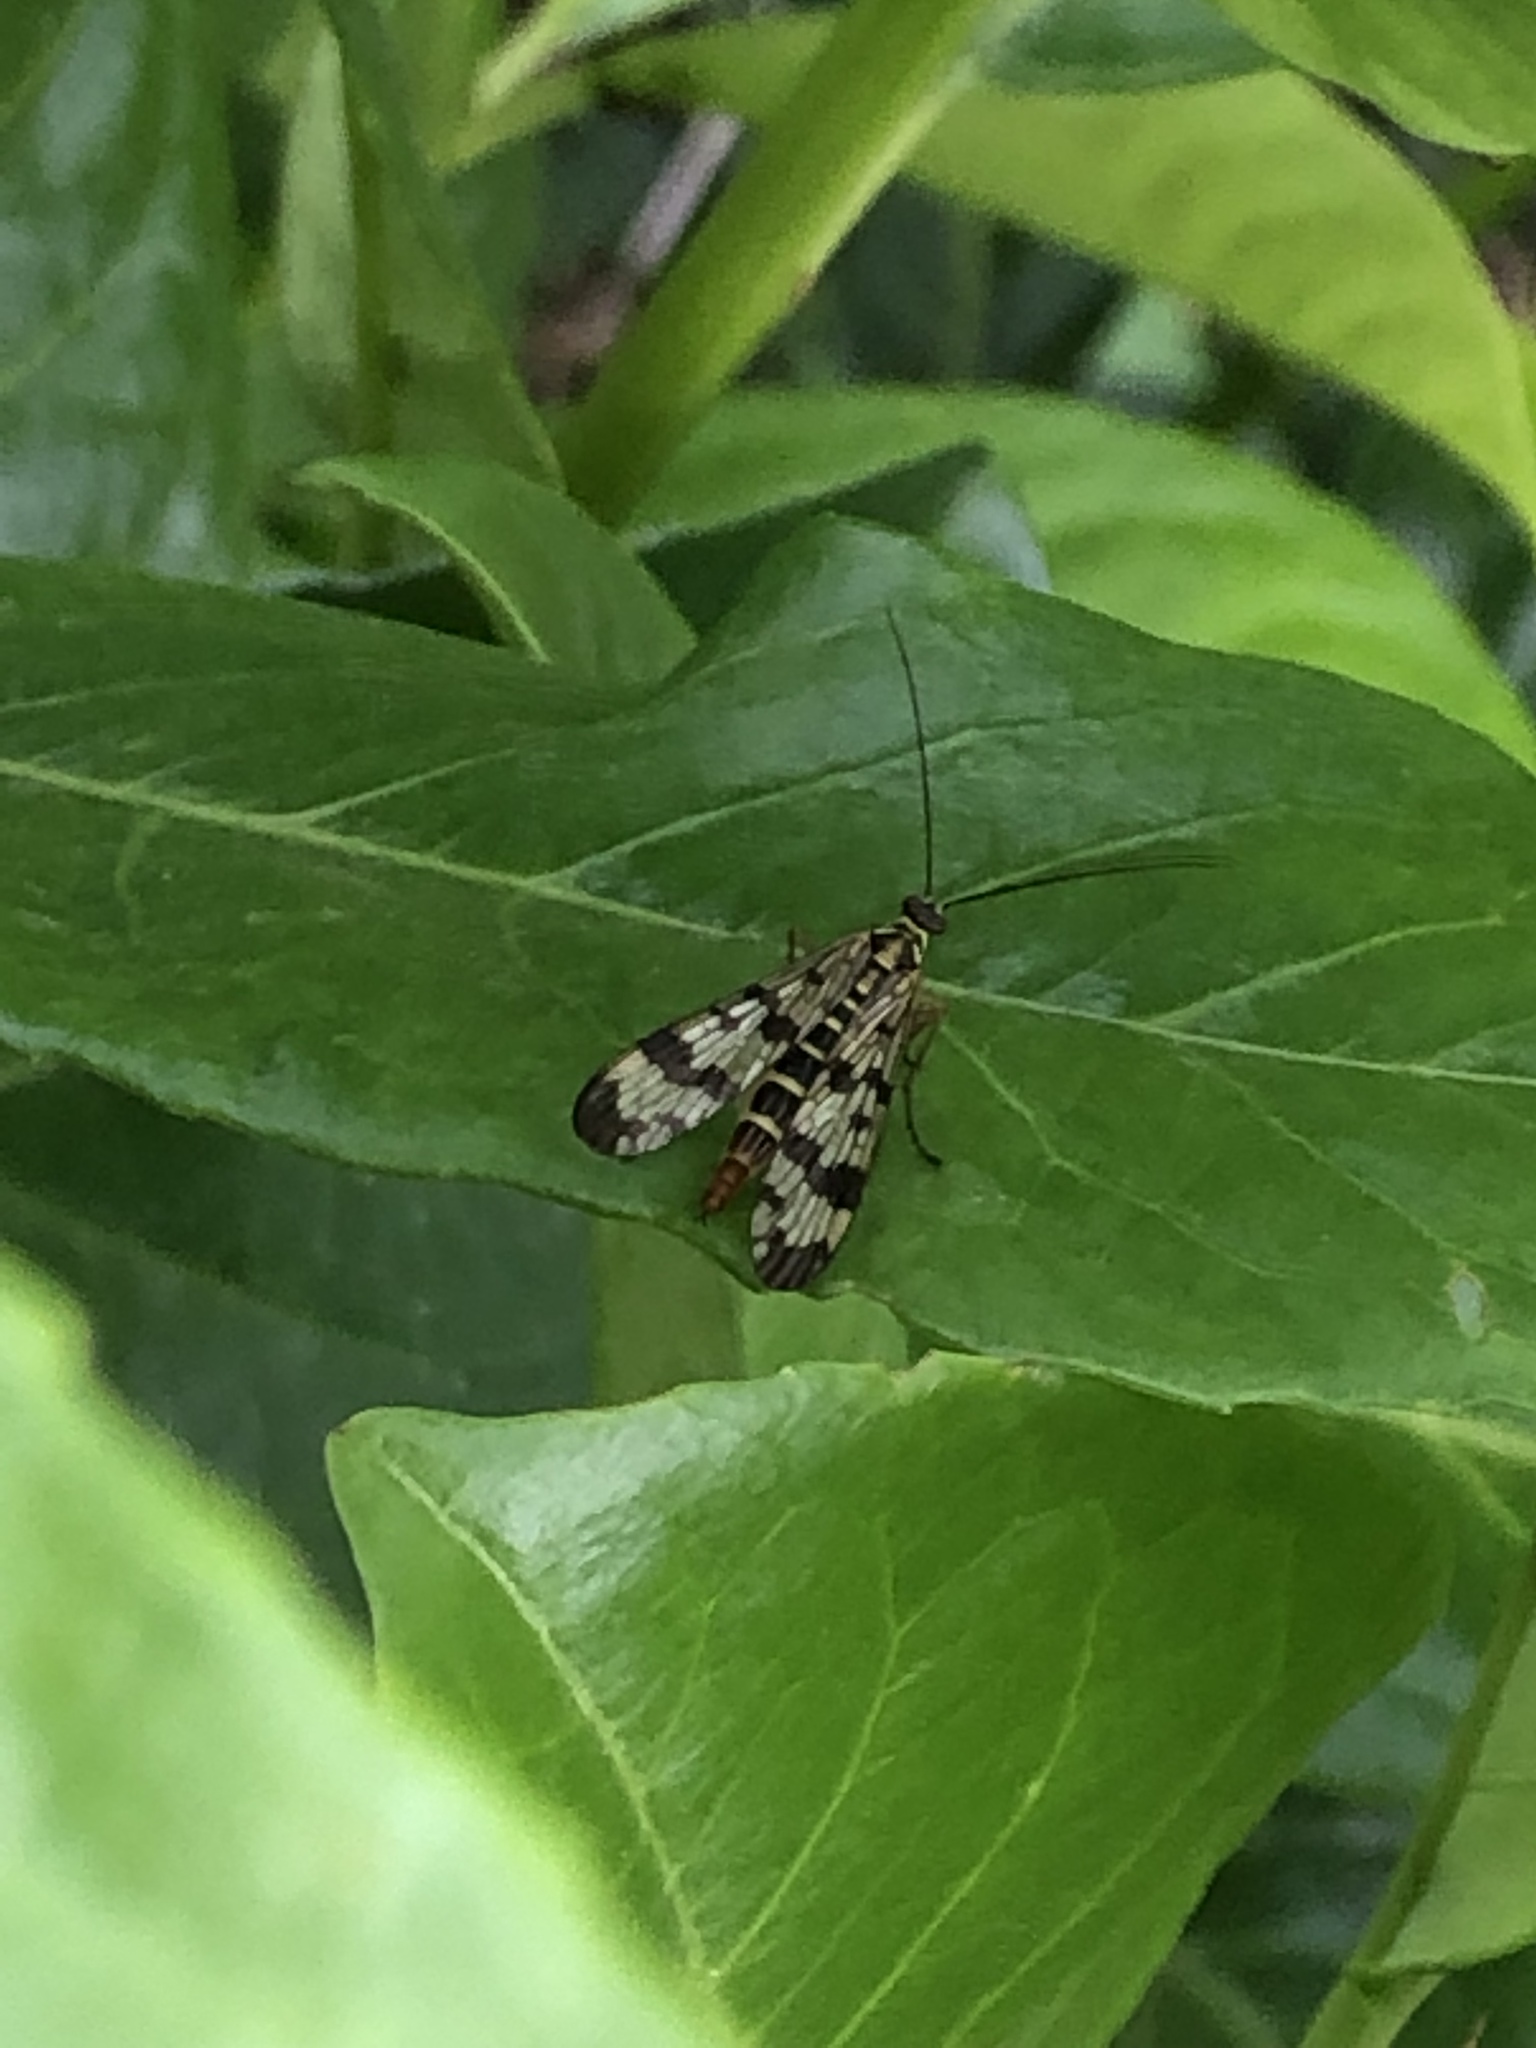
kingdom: Animalia
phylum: Arthropoda
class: Insecta
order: Mecoptera
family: Panorpidae
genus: Panorpa
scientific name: Panorpa communis
